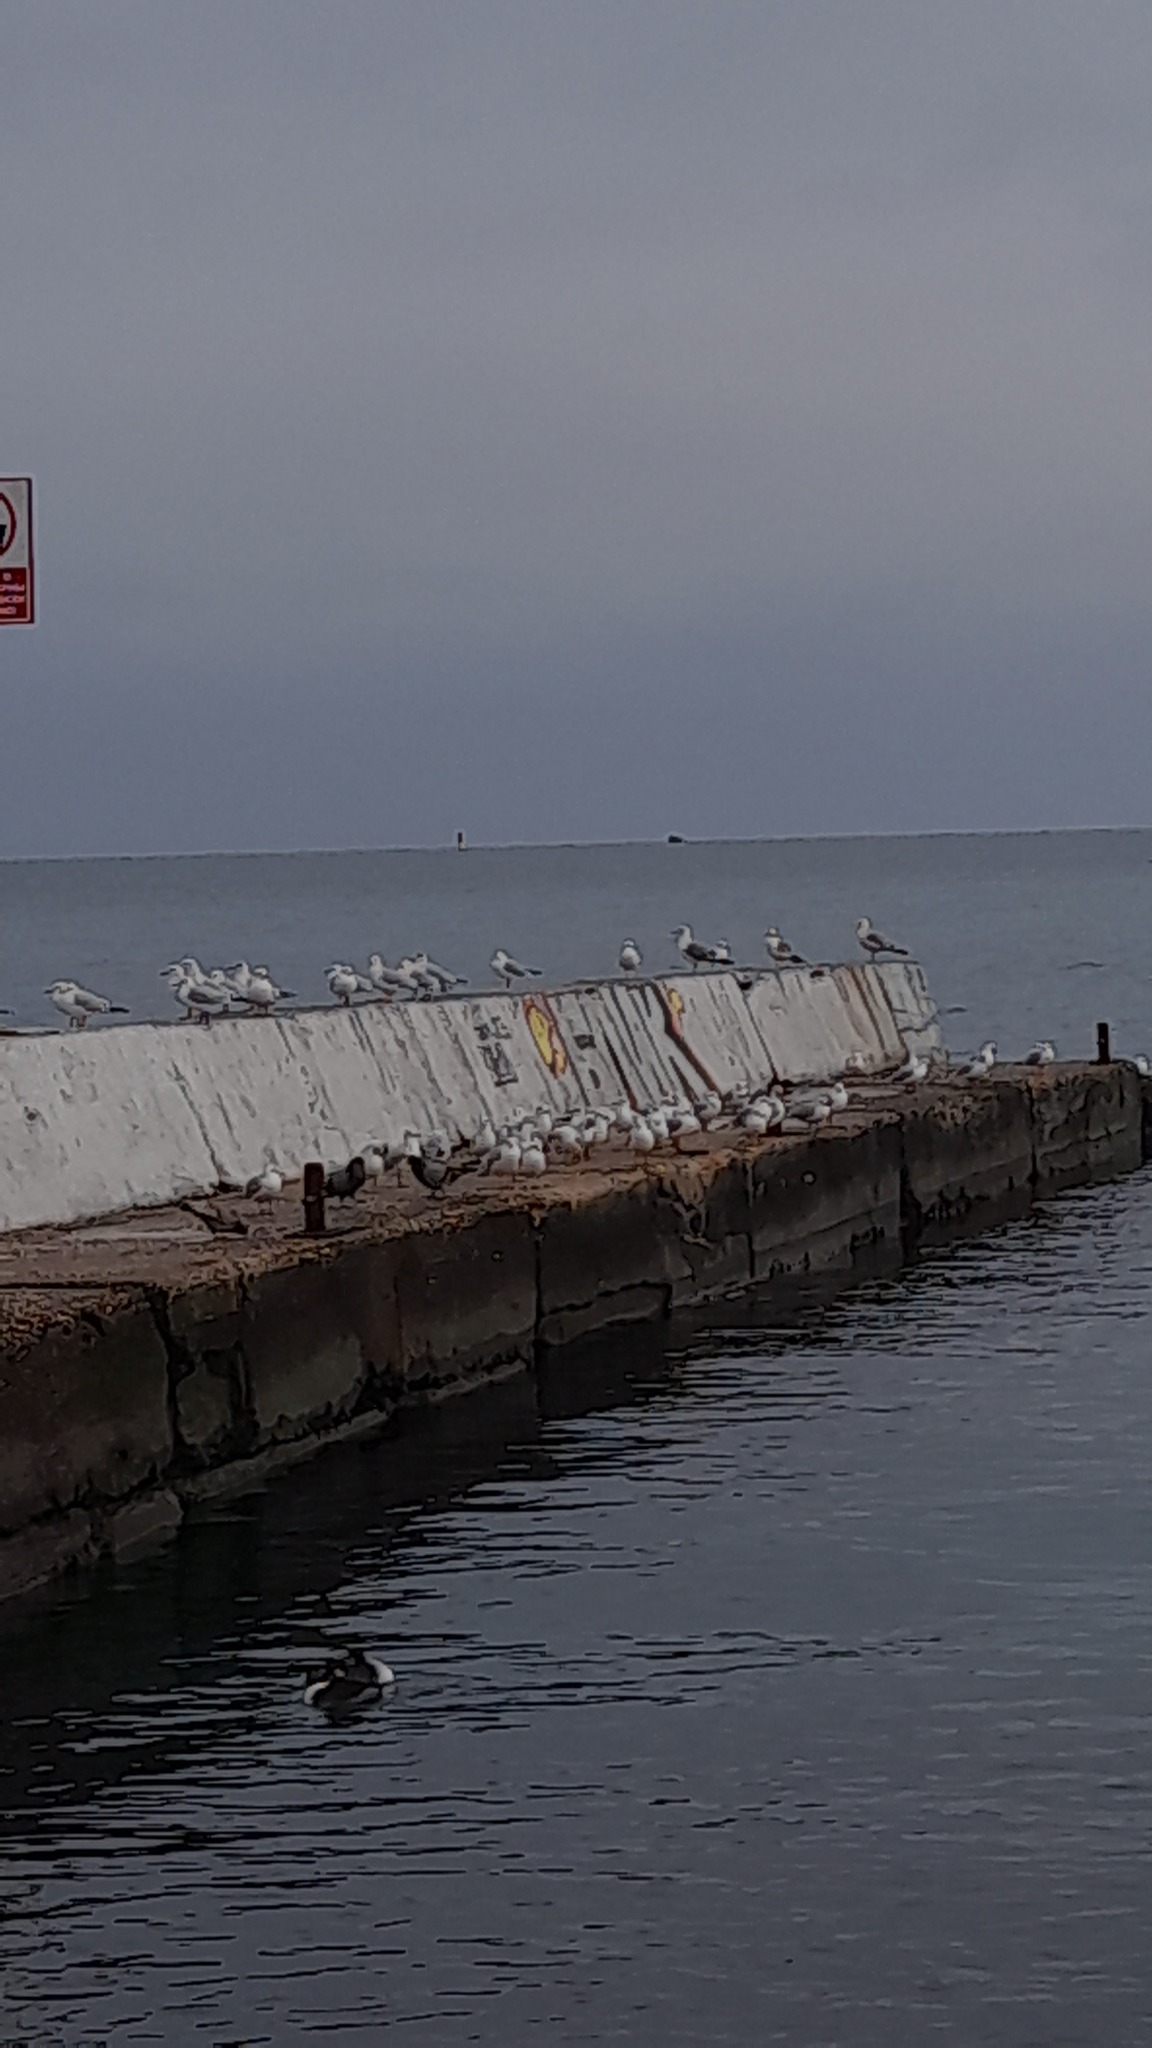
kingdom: Animalia
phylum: Chordata
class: Aves
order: Charadriiformes
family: Laridae
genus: Chroicocephalus
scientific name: Chroicocephalus ridibundus
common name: Black-headed gull
